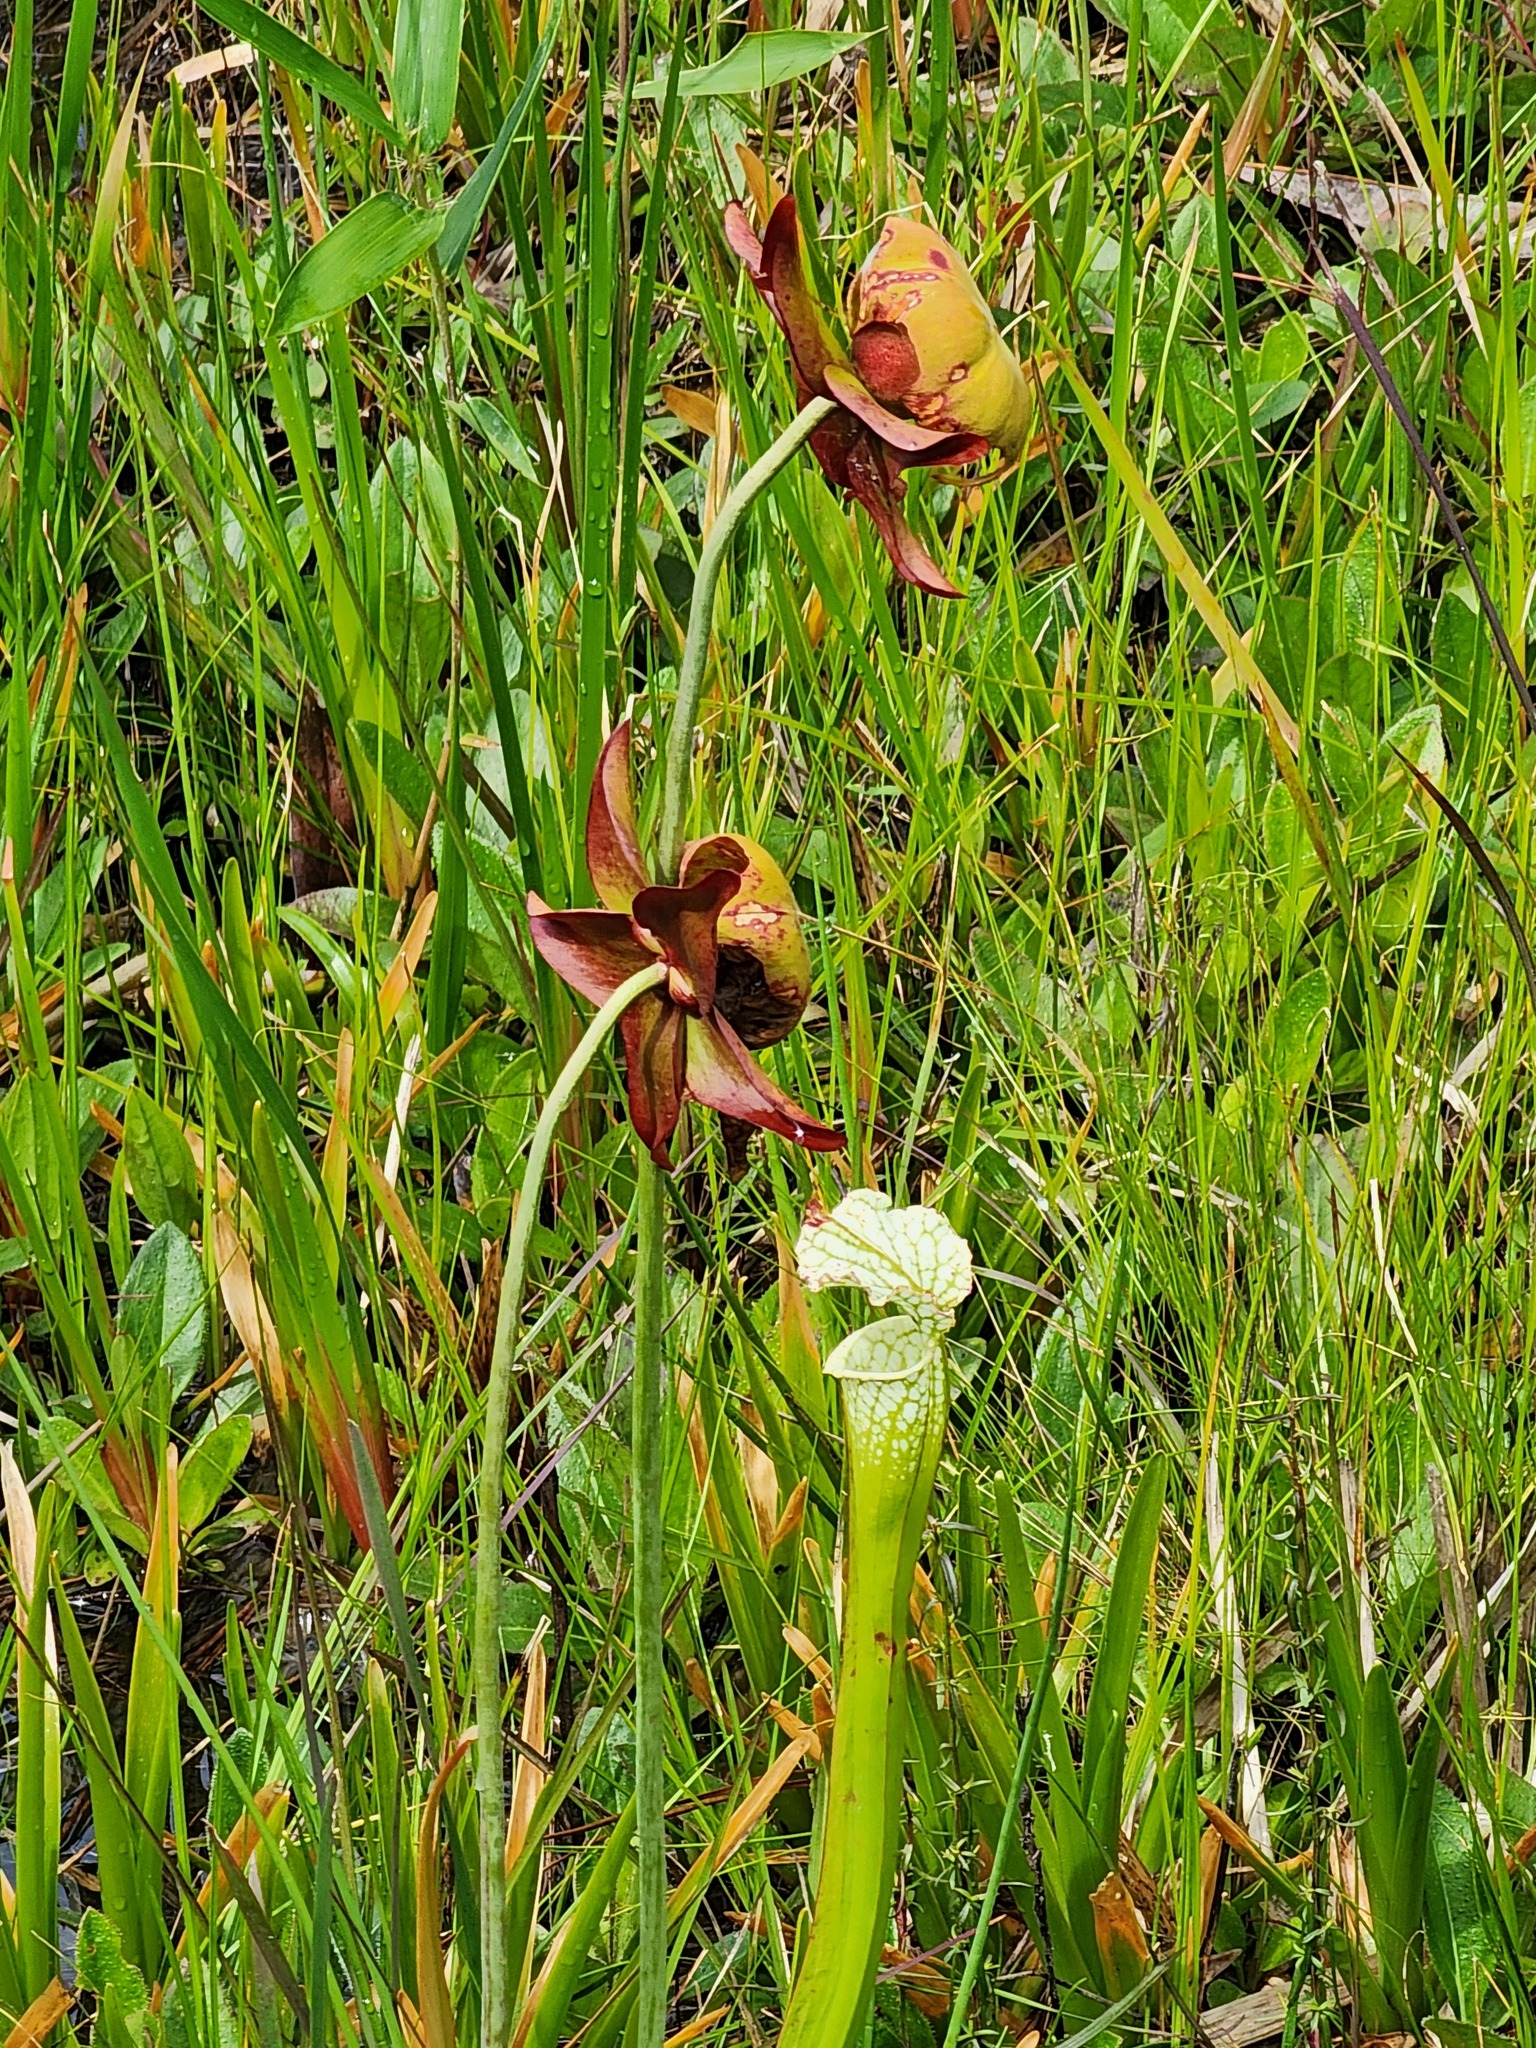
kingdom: Plantae
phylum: Tracheophyta
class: Magnoliopsida
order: Ericales
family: Sarraceniaceae
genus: Sarracenia
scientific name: Sarracenia leucophylla
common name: Purple trumpetleaf
